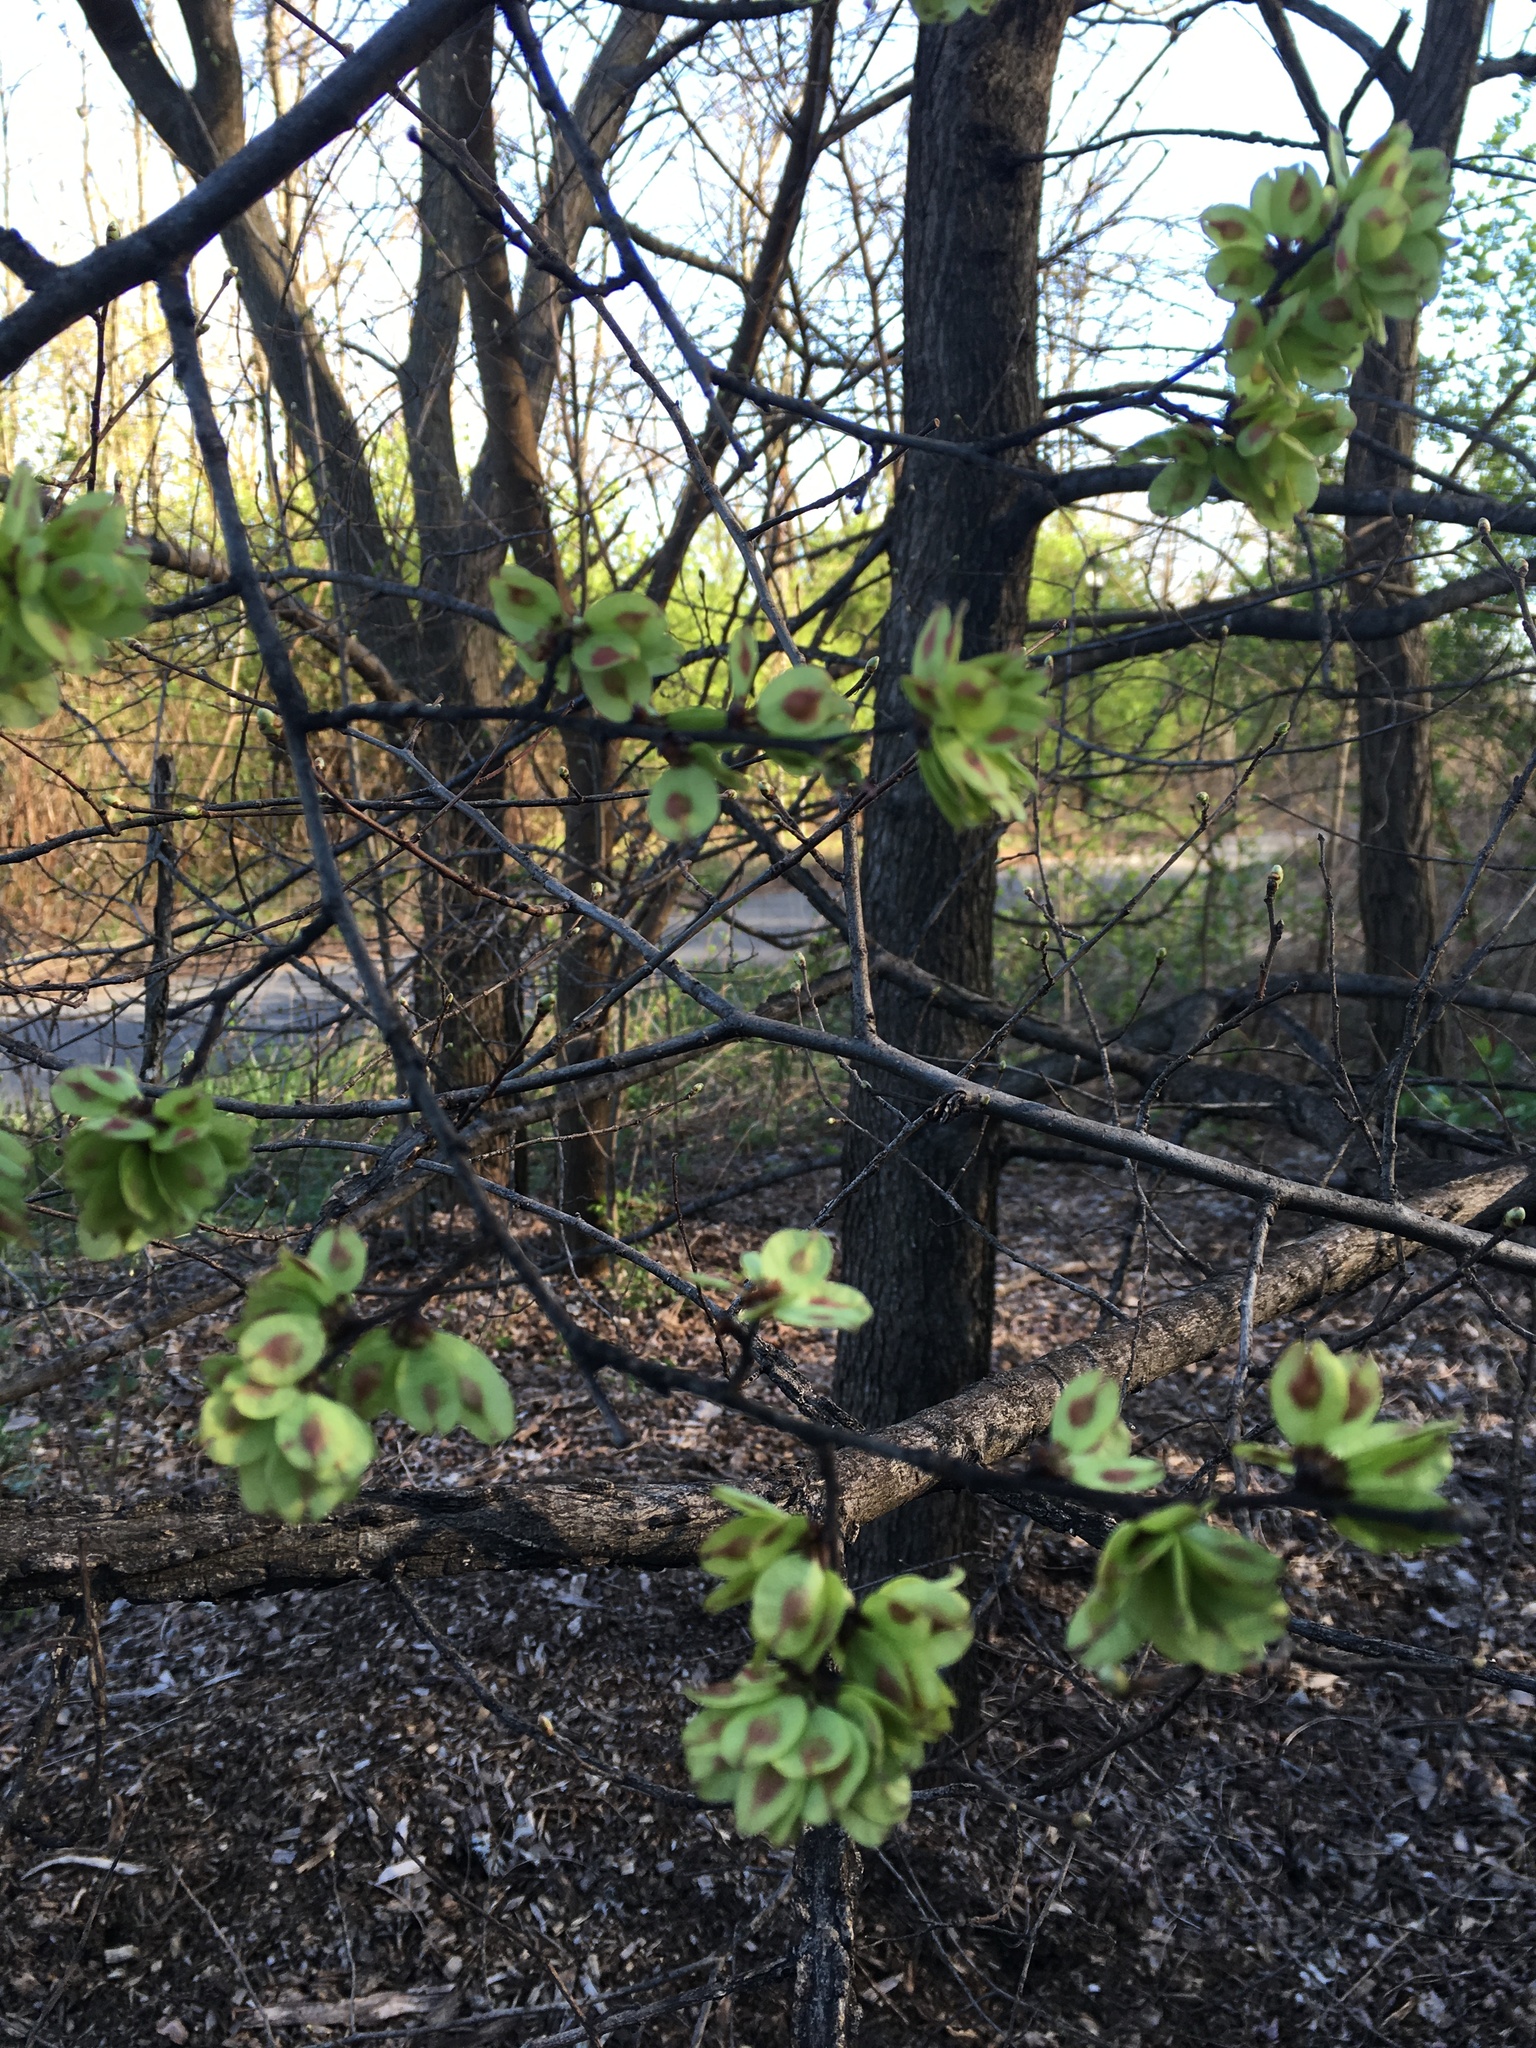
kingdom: Plantae
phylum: Tracheophyta
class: Magnoliopsida
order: Rosales
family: Ulmaceae
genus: Ulmus
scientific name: Ulmus glabra
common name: Wych elm
